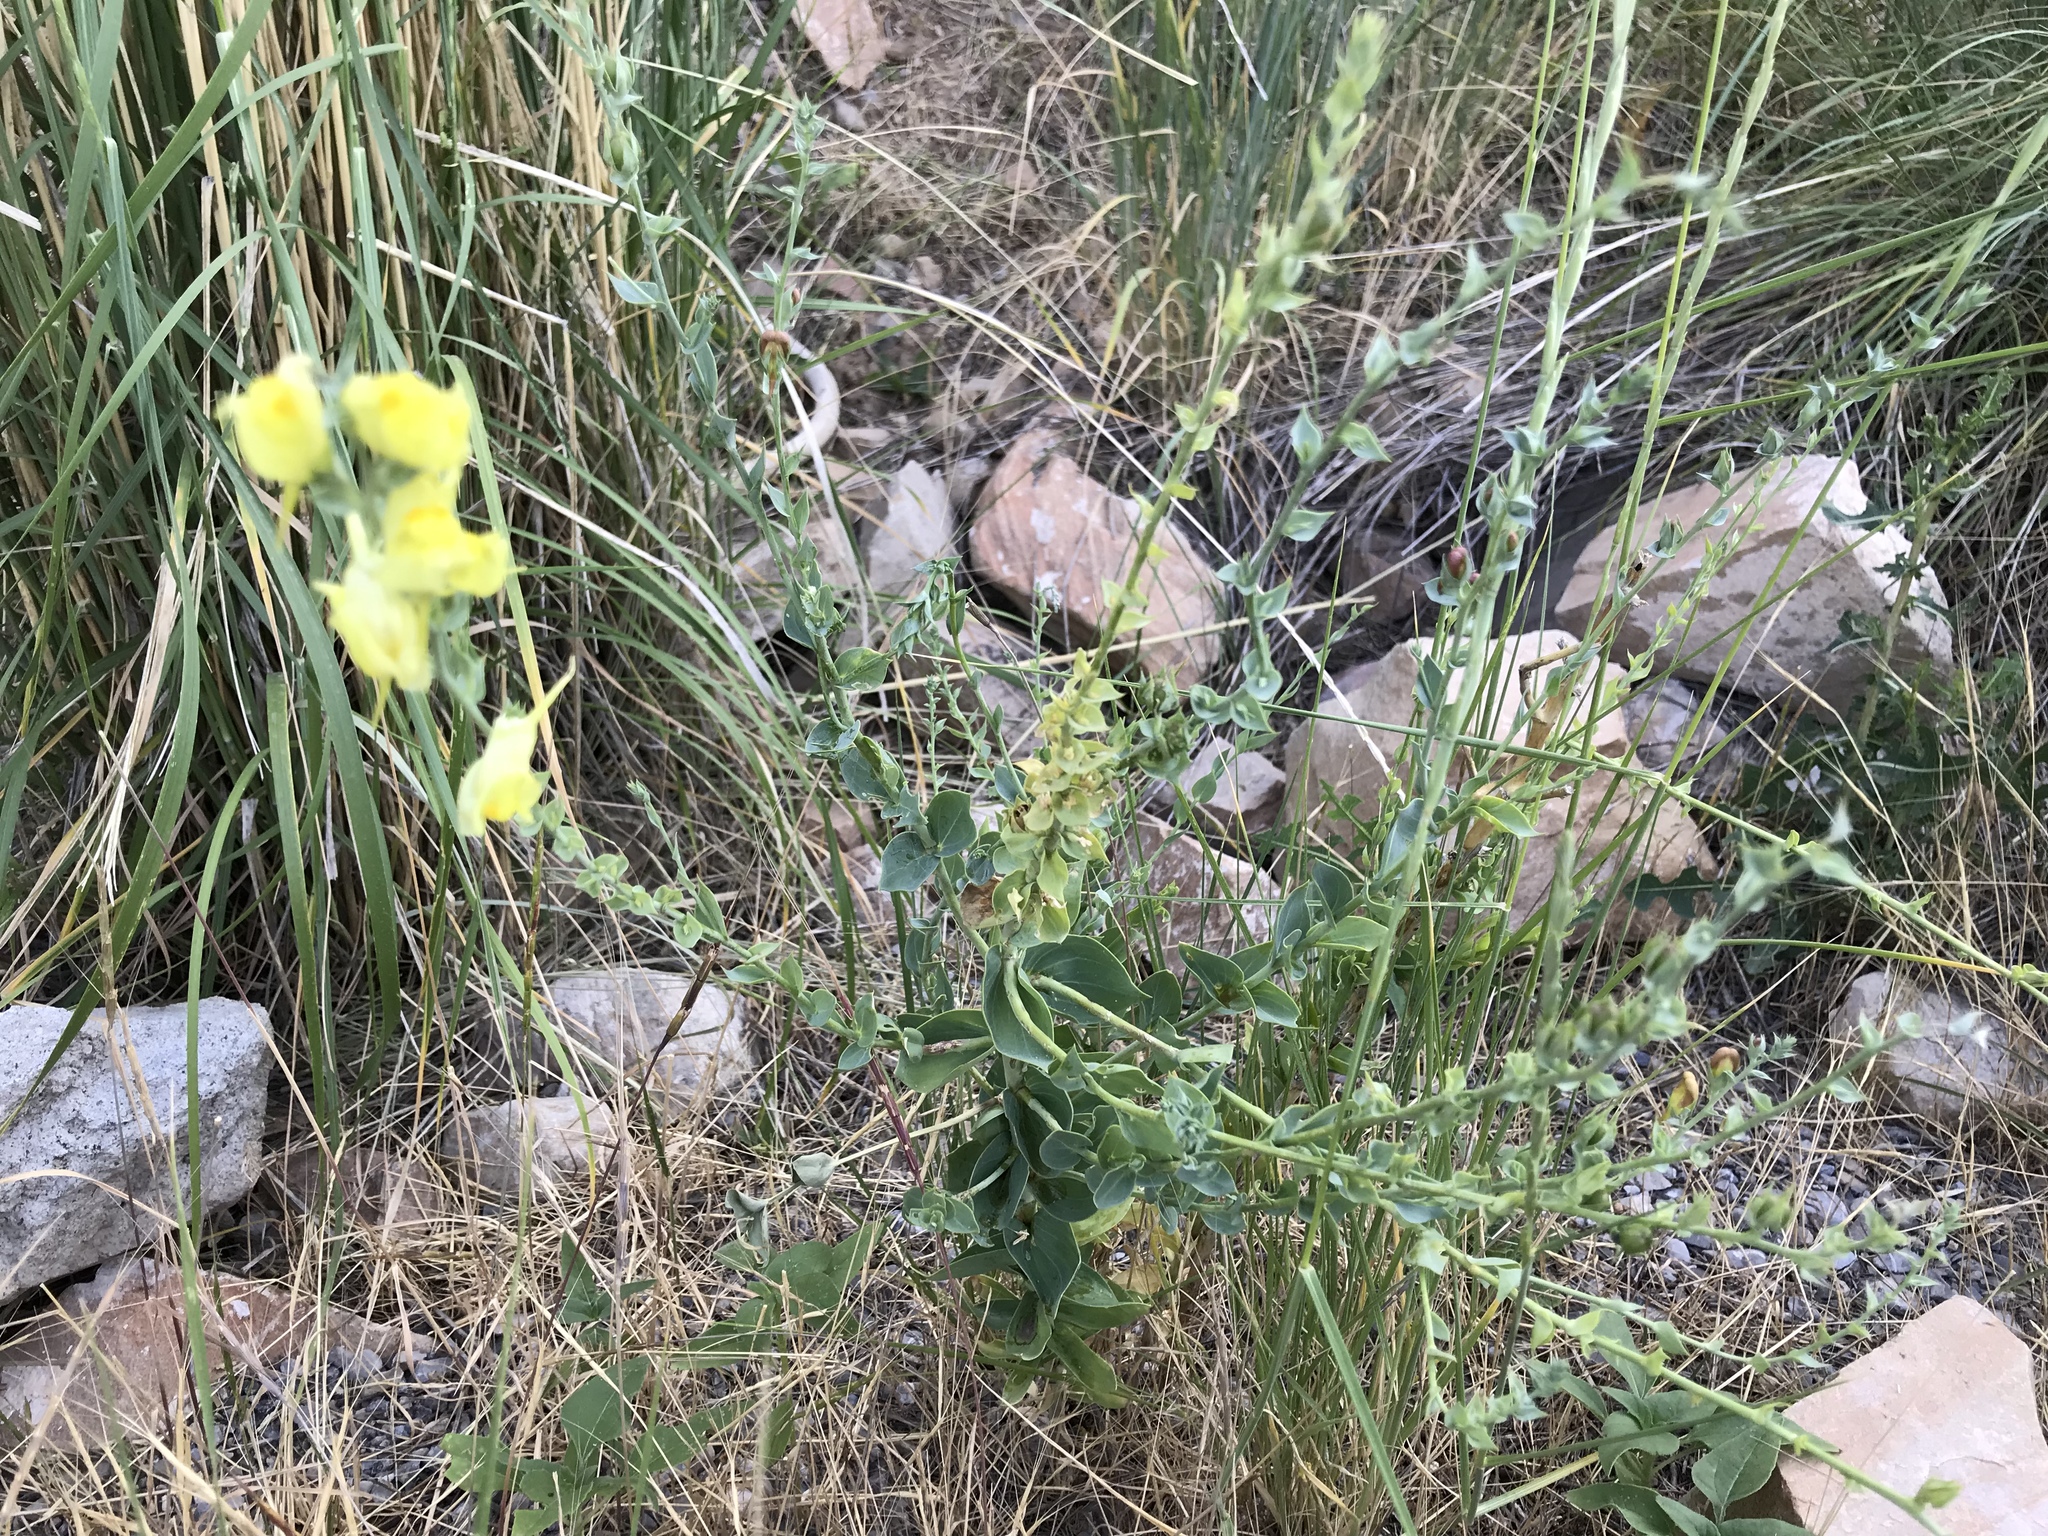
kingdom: Plantae
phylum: Tracheophyta
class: Magnoliopsida
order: Lamiales
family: Plantaginaceae
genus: Linaria
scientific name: Linaria dalmatica
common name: Dalmatian toadflax
